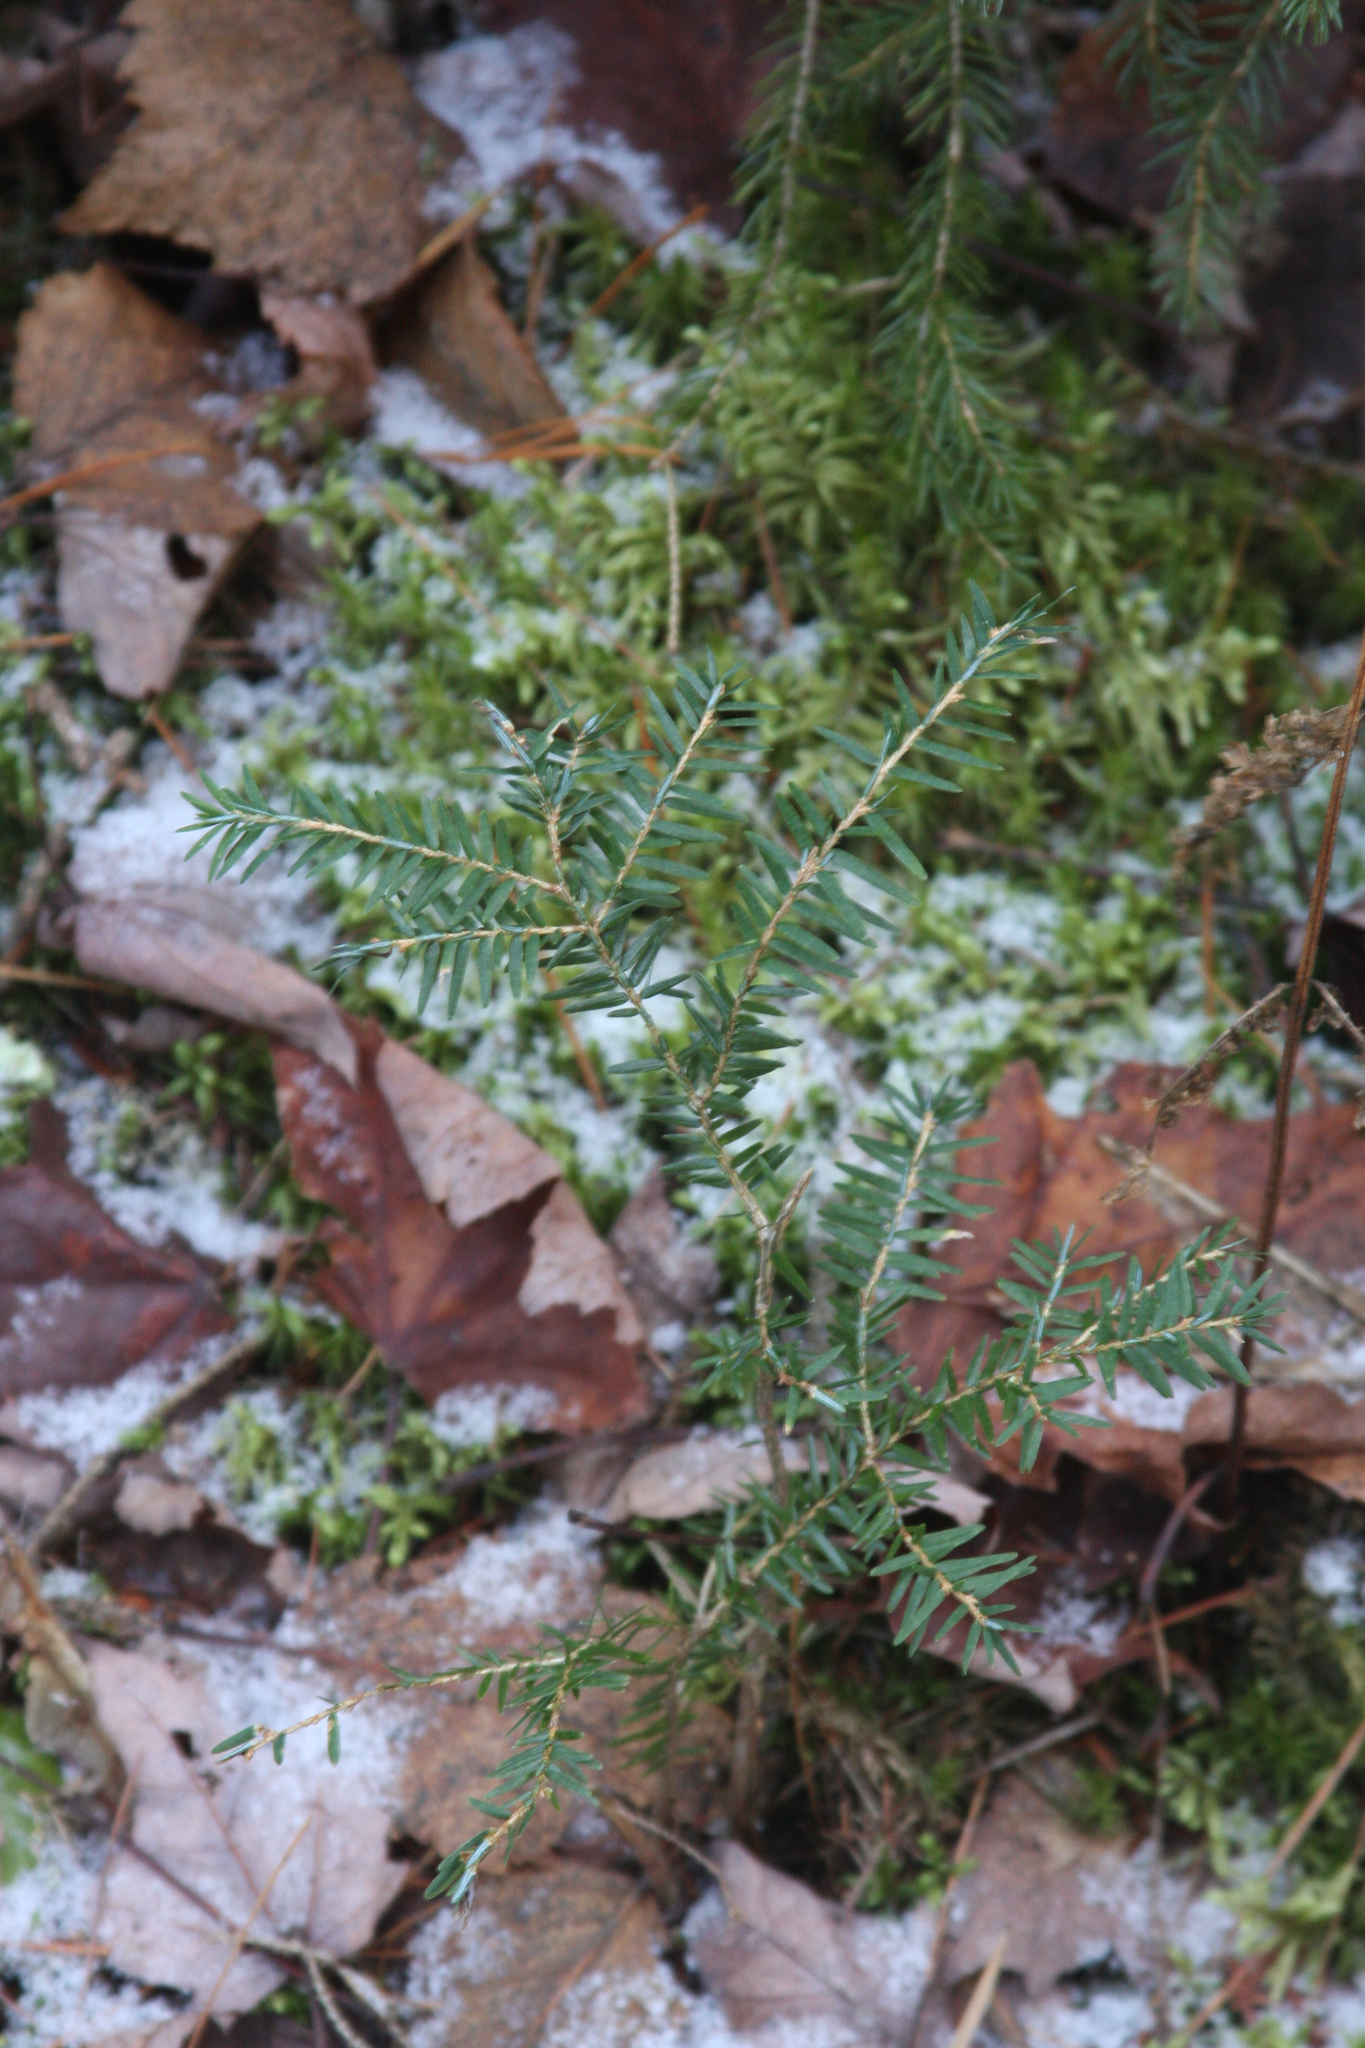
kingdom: Plantae
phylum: Tracheophyta
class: Pinopsida
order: Pinales
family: Pinaceae
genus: Tsuga
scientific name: Tsuga canadensis
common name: Eastern hemlock
